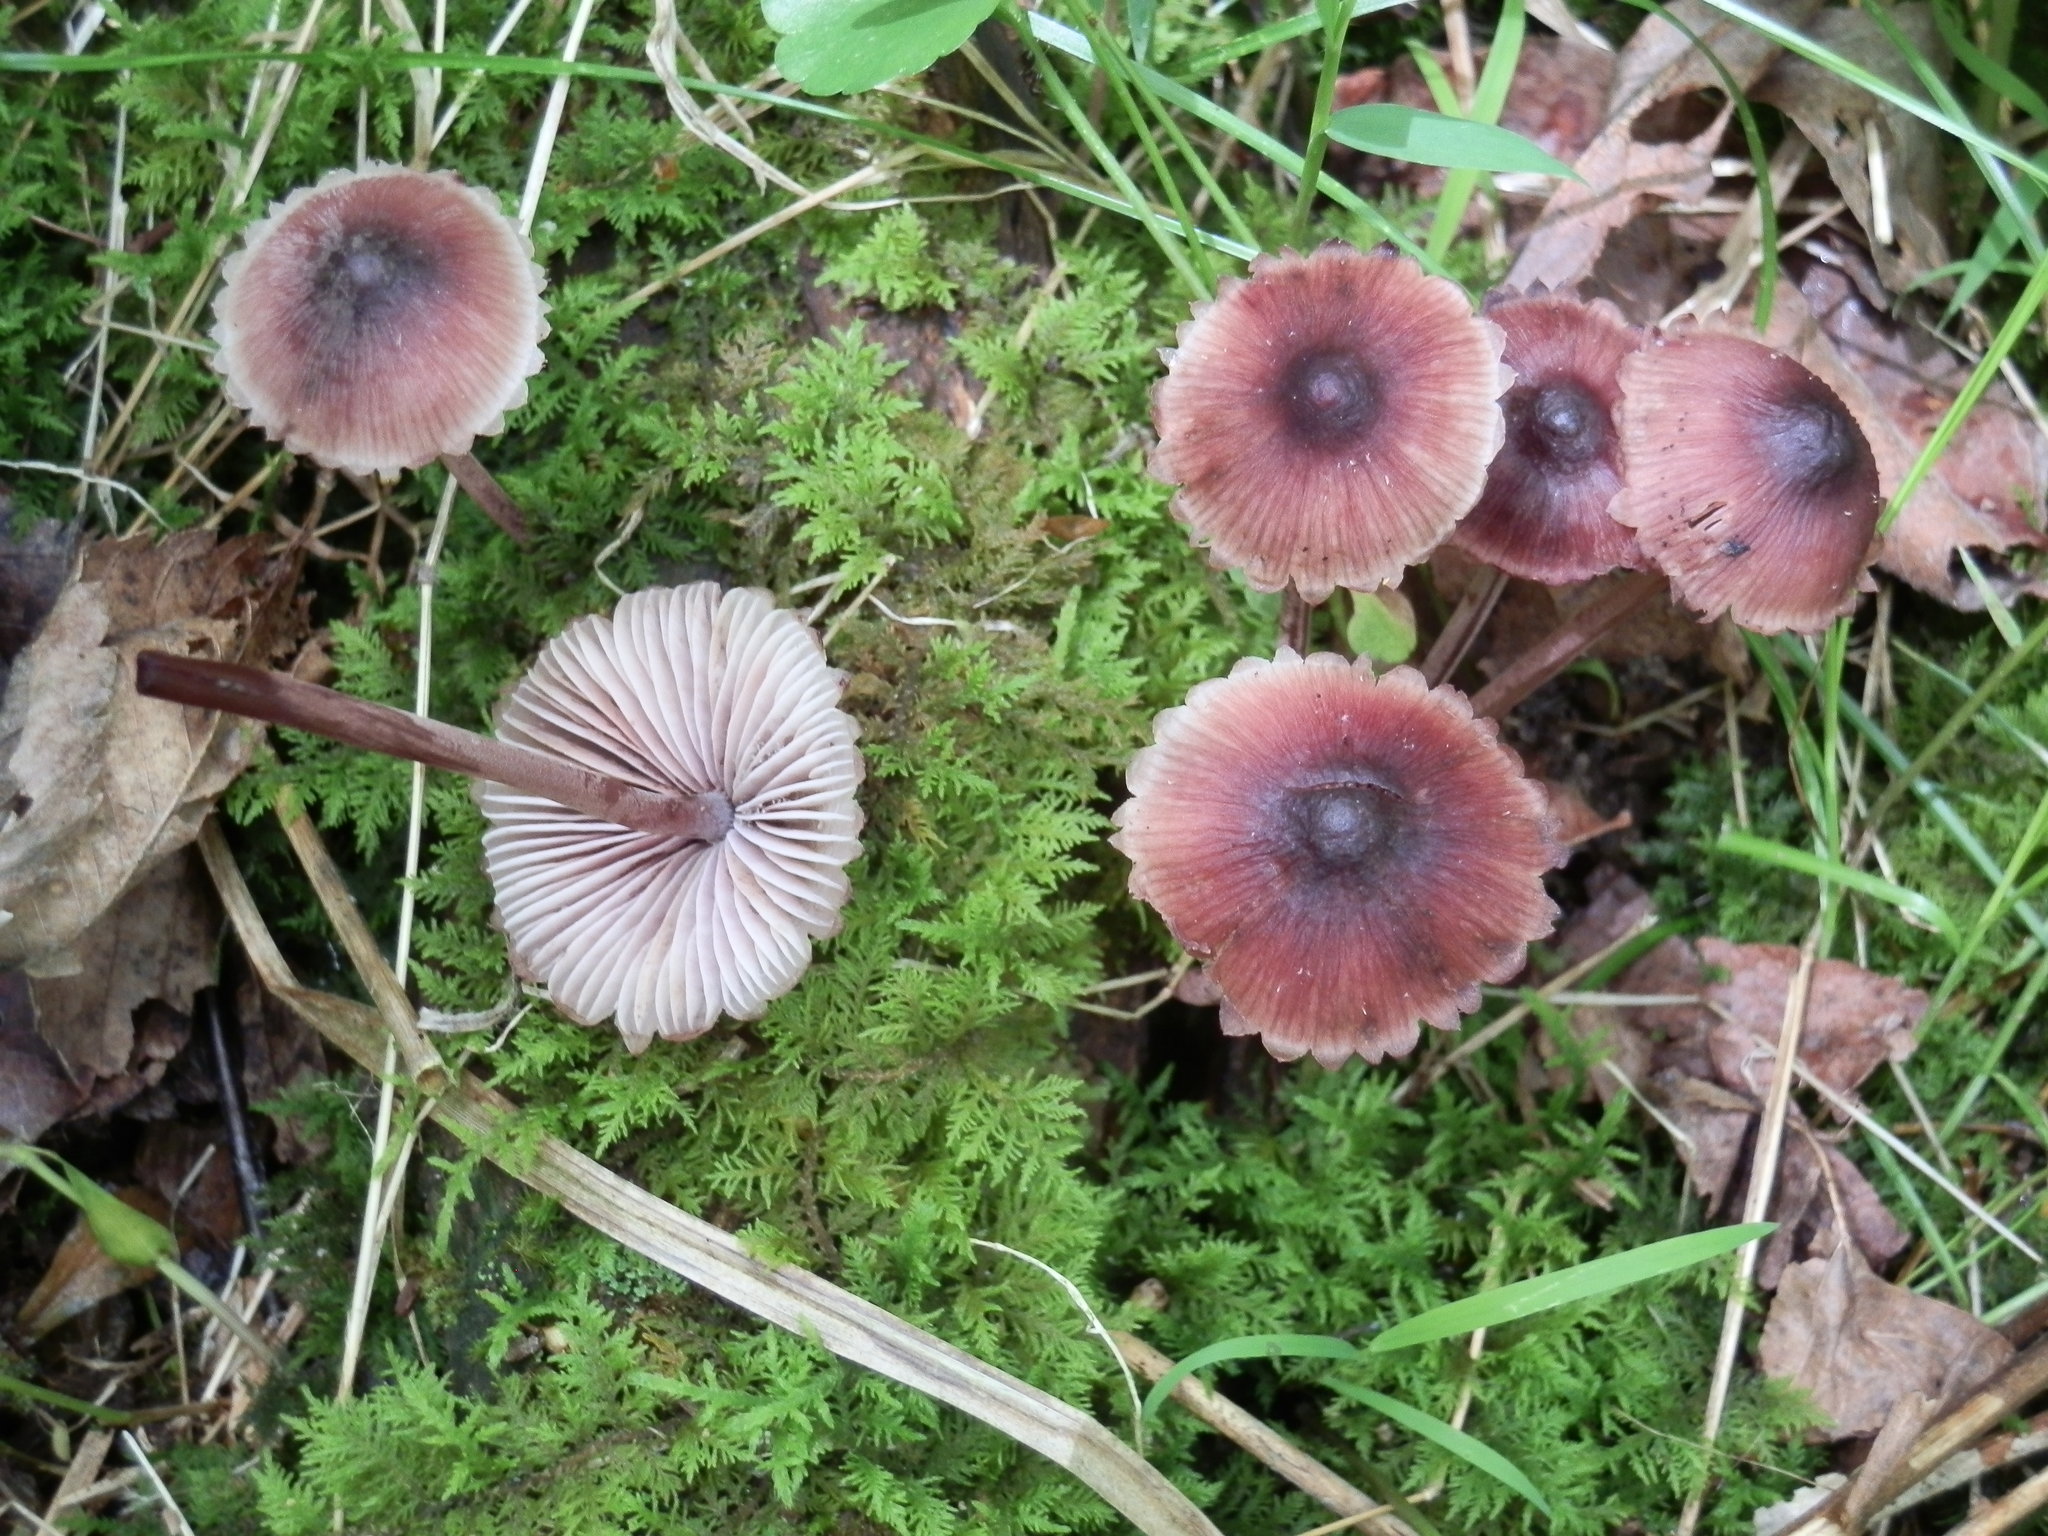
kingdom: Fungi
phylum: Basidiomycota
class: Agaricomycetes
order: Agaricales
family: Mycenaceae
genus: Mycena
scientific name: Mycena haematopus
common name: Burgundydrop bonnet
